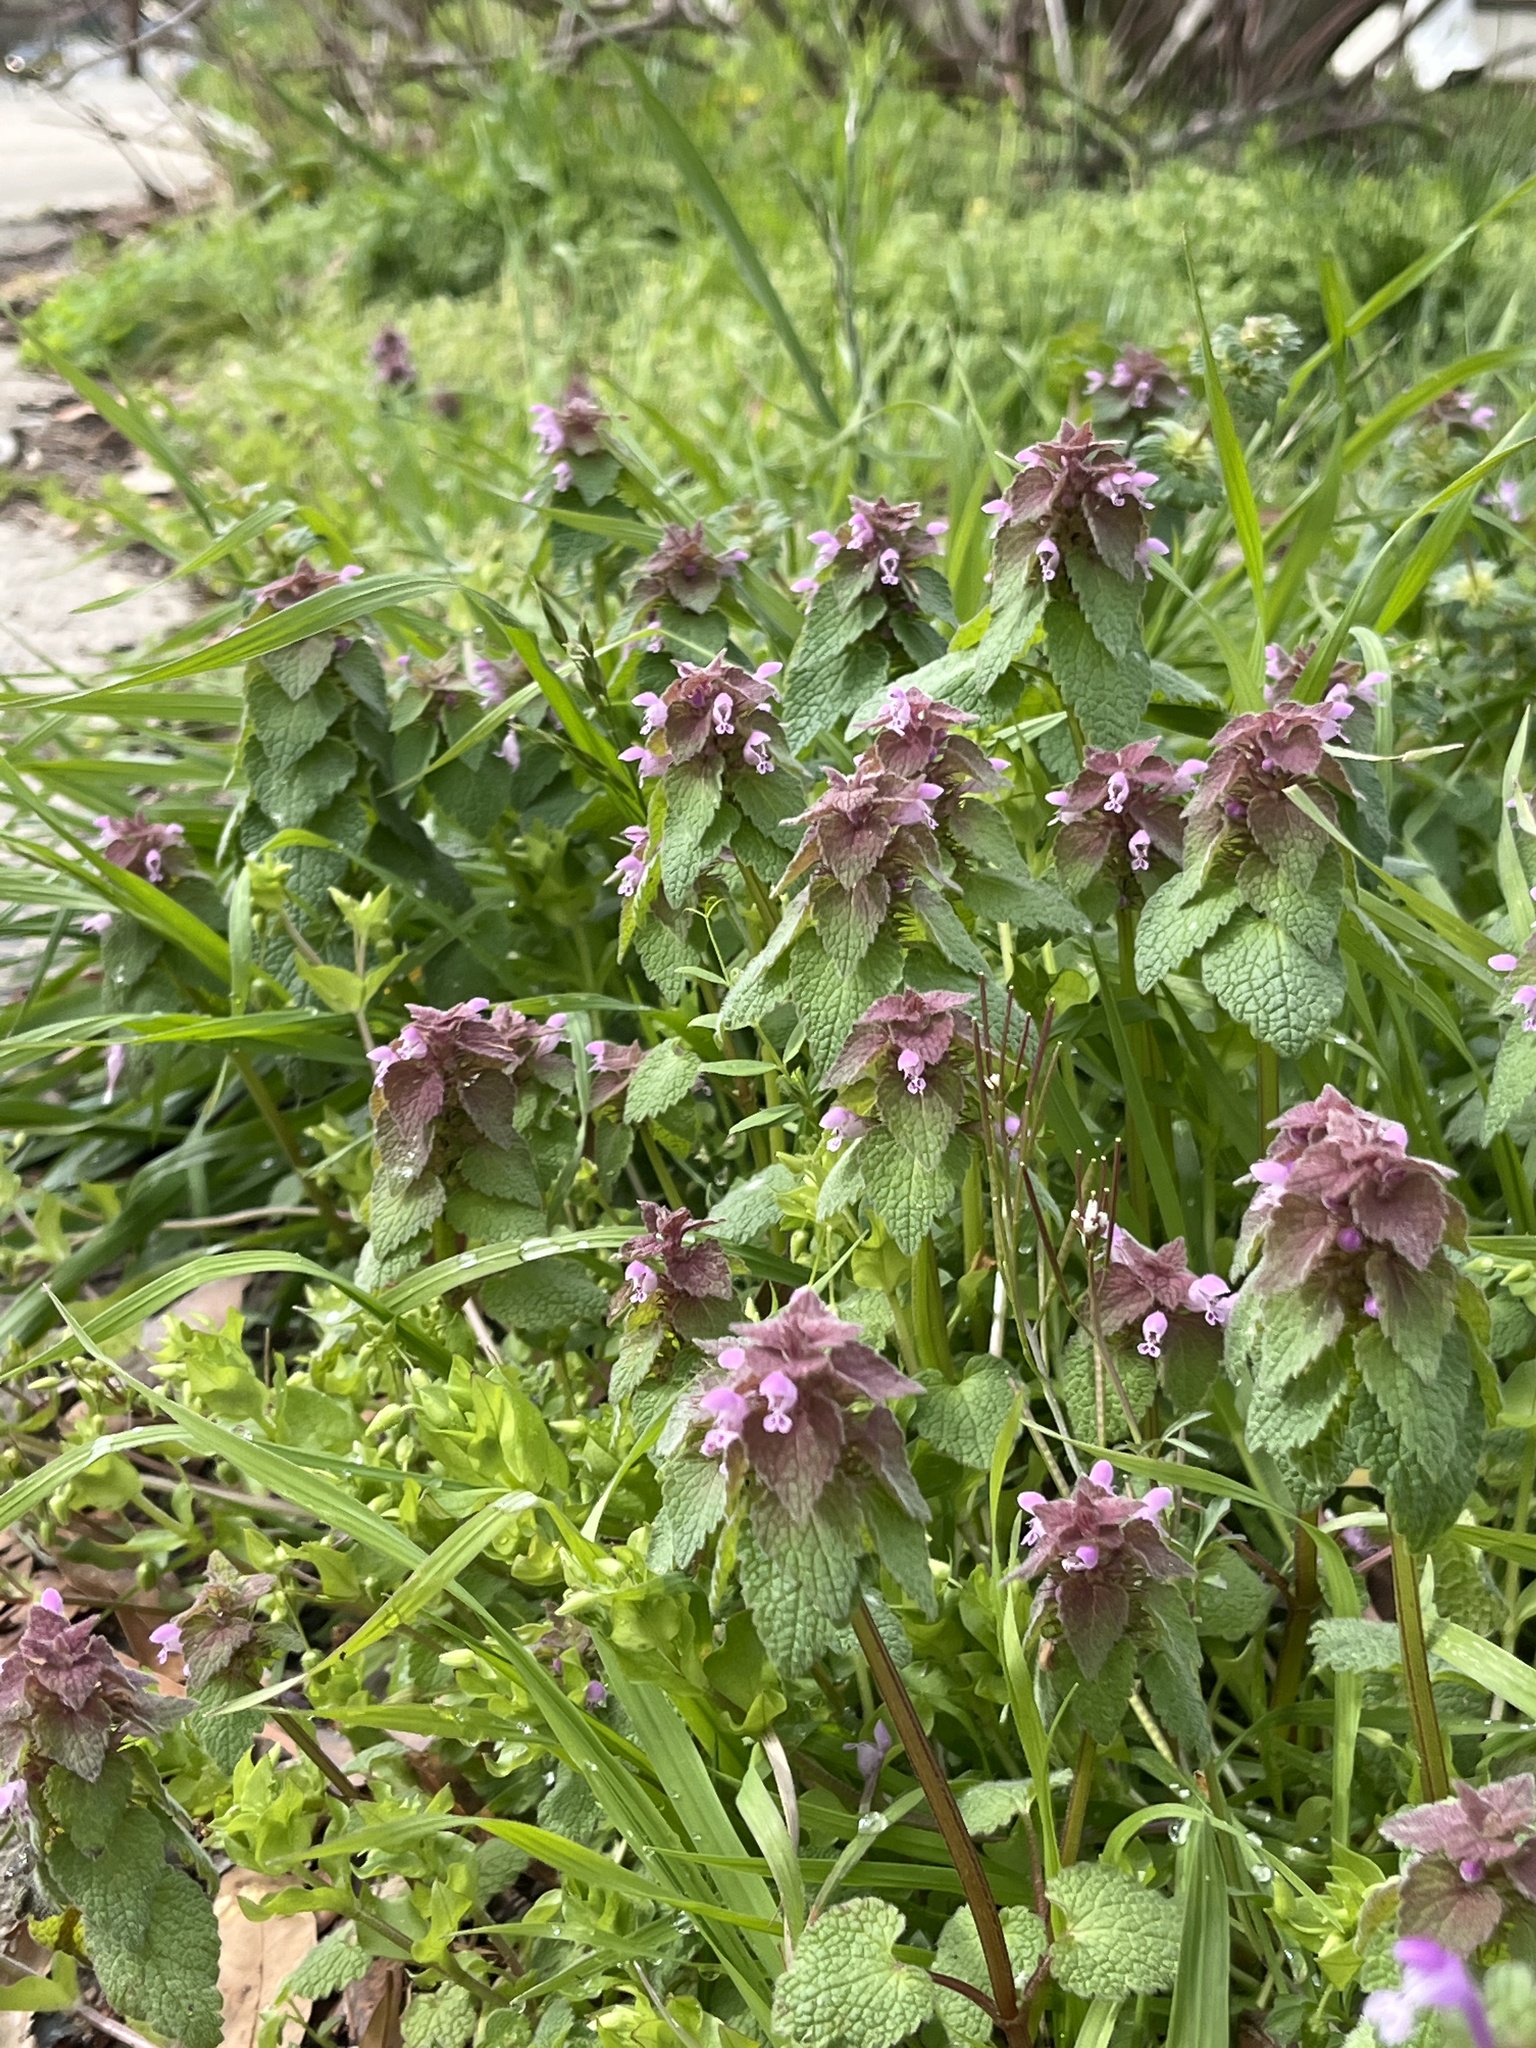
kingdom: Plantae
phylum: Tracheophyta
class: Magnoliopsida
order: Lamiales
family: Lamiaceae
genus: Lamium
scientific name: Lamium purpureum
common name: Red dead-nettle
